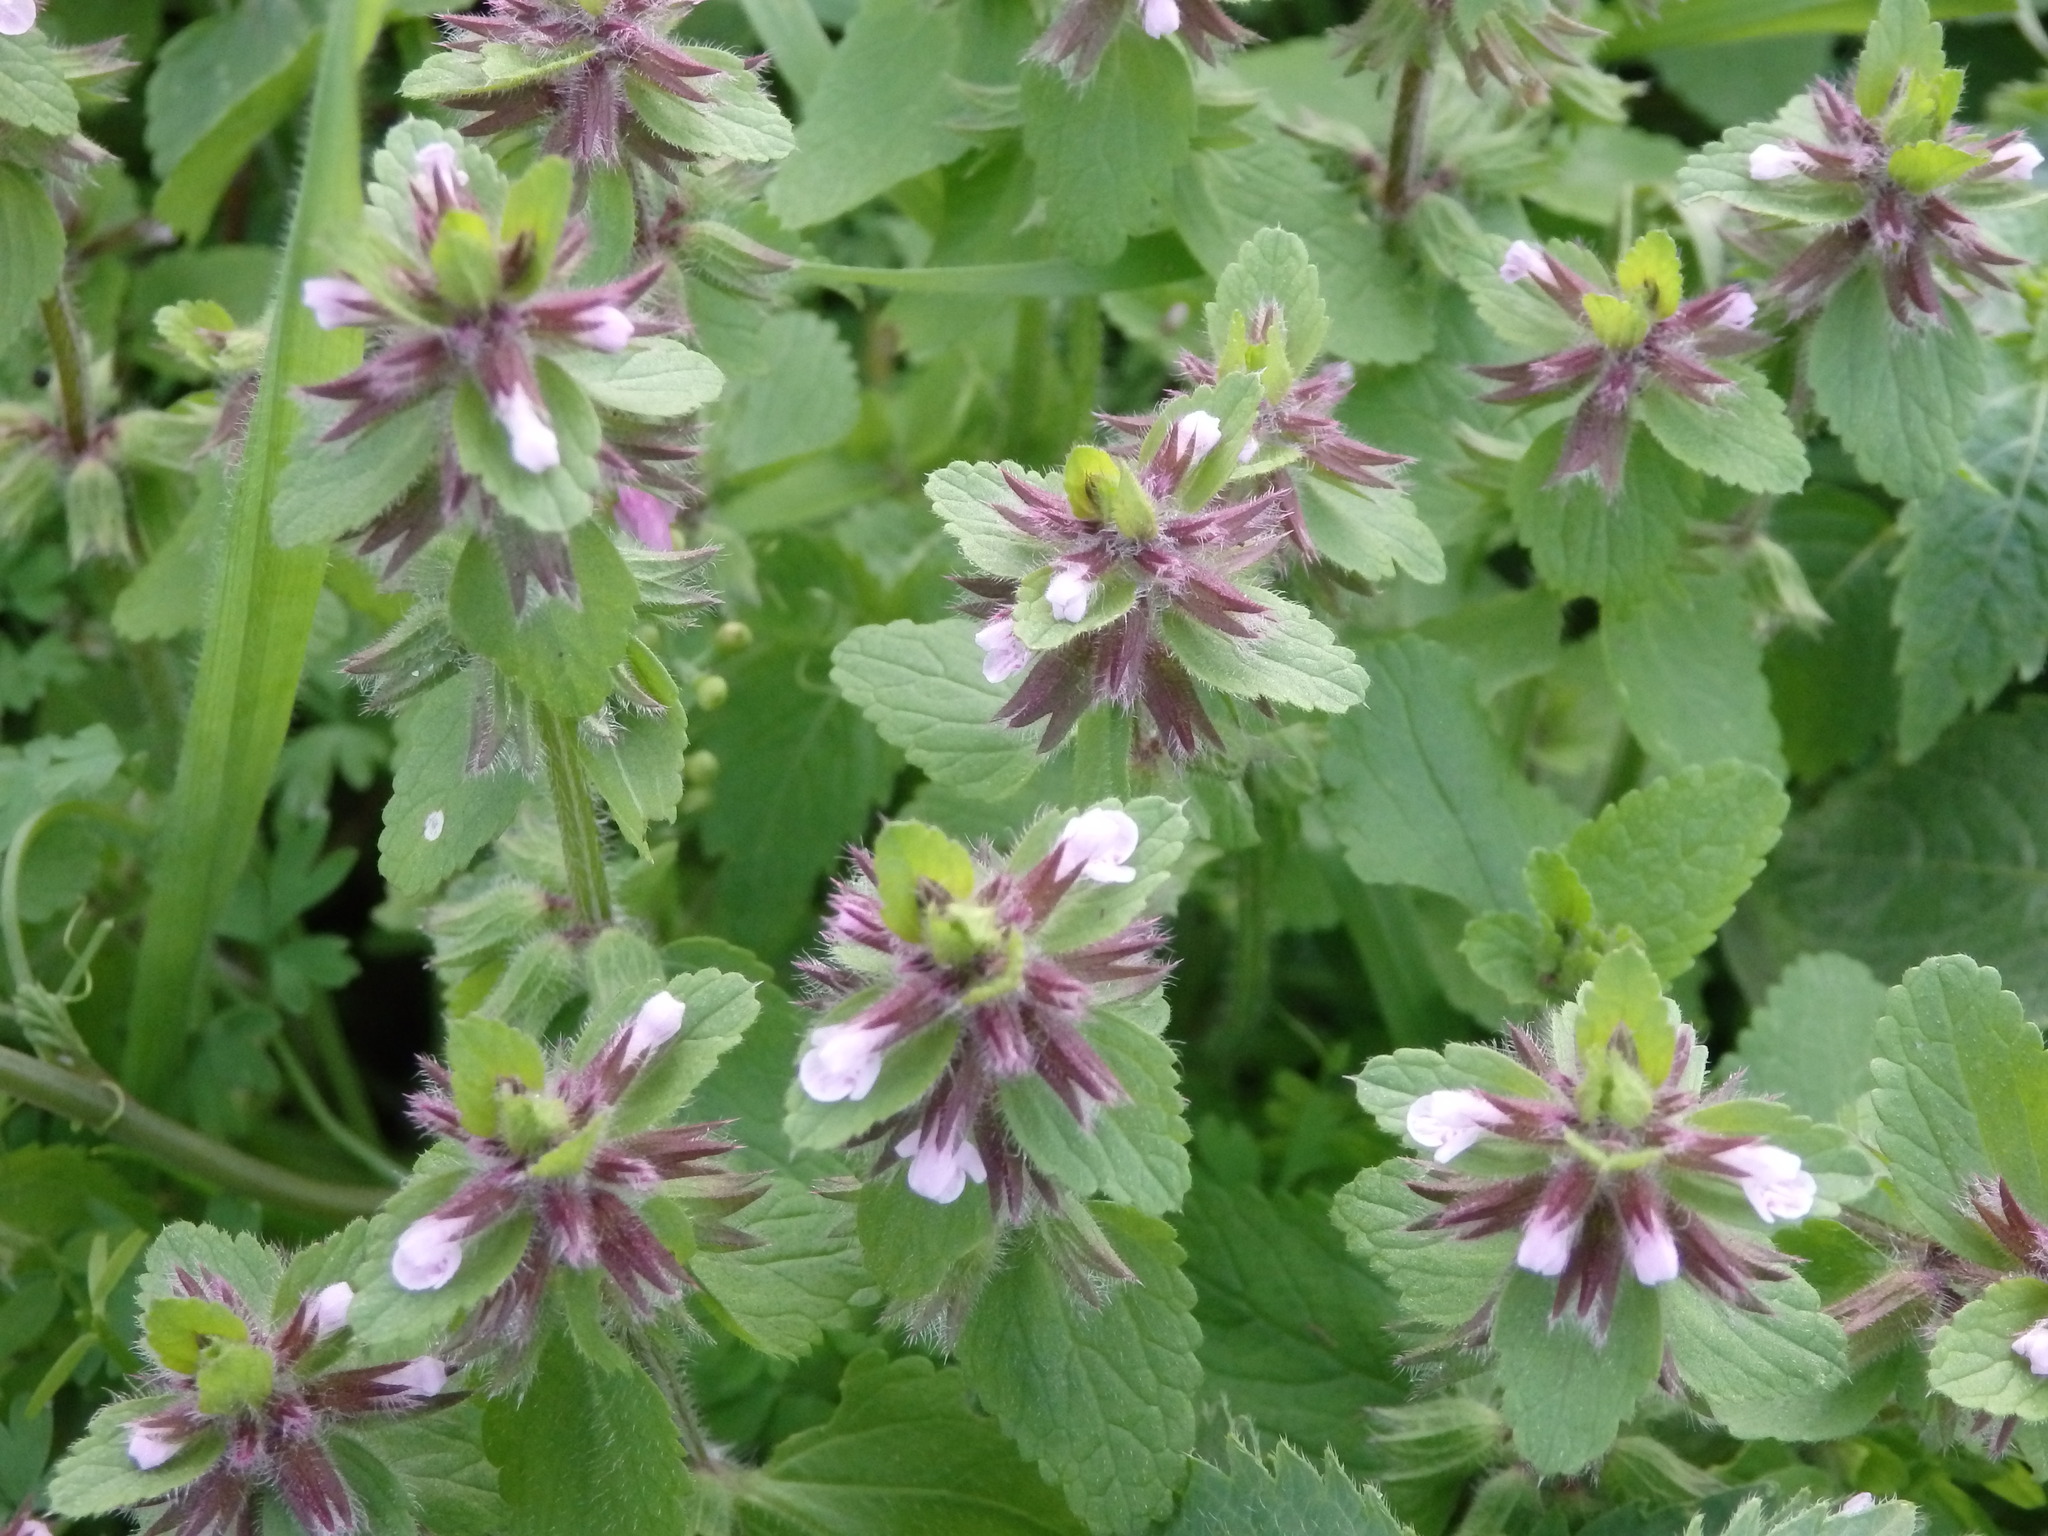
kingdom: Plantae
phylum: Tracheophyta
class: Magnoliopsida
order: Lamiales
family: Lamiaceae
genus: Stachys
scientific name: Stachys arvensis
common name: Field woundwort
